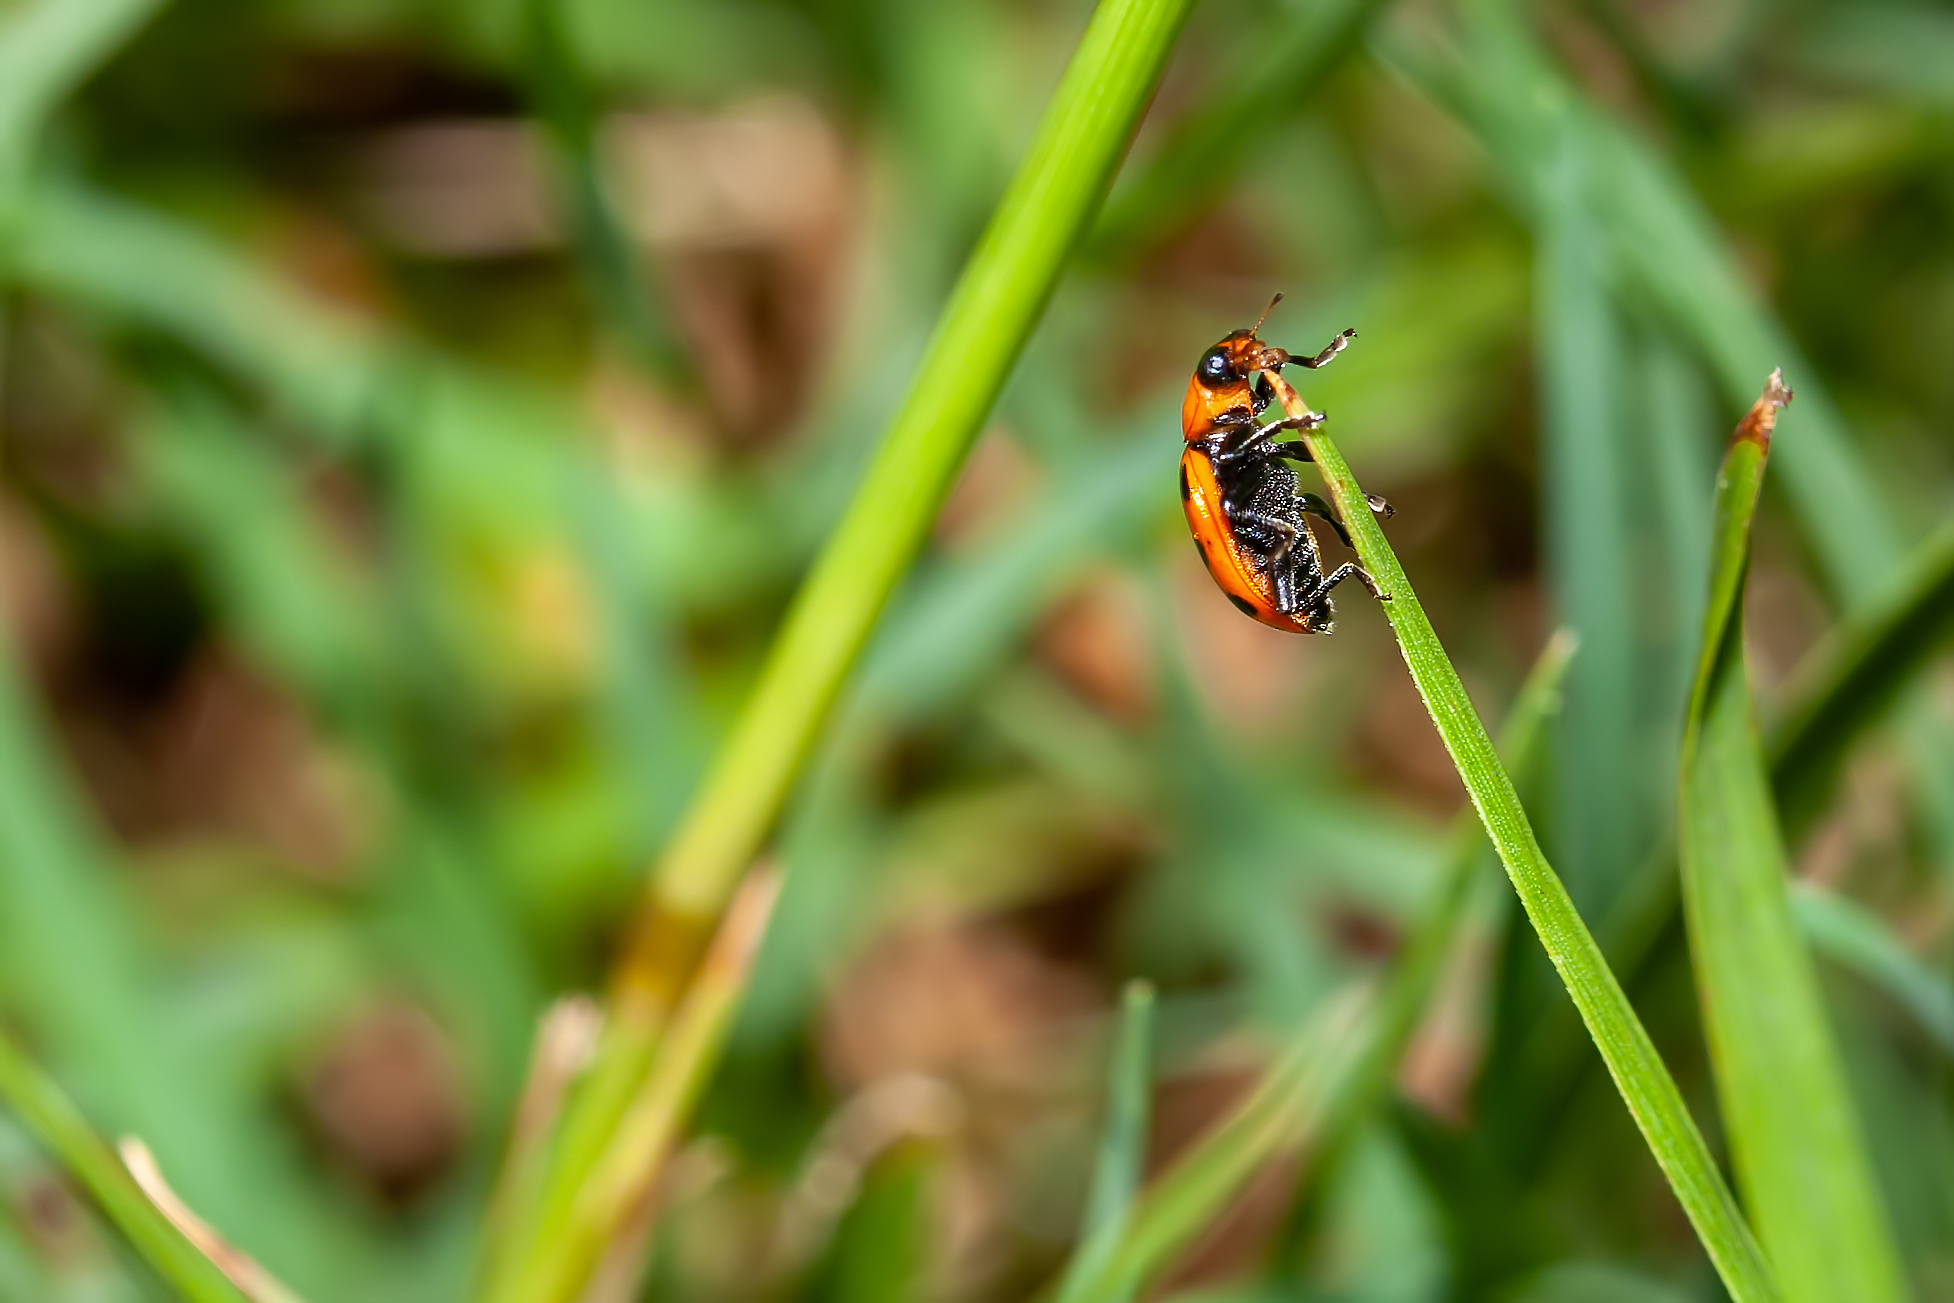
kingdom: Animalia
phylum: Arthropoda
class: Insecta
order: Coleoptera
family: Coccinellidae
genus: Coleomegilla
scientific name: Coleomegilla maculata
